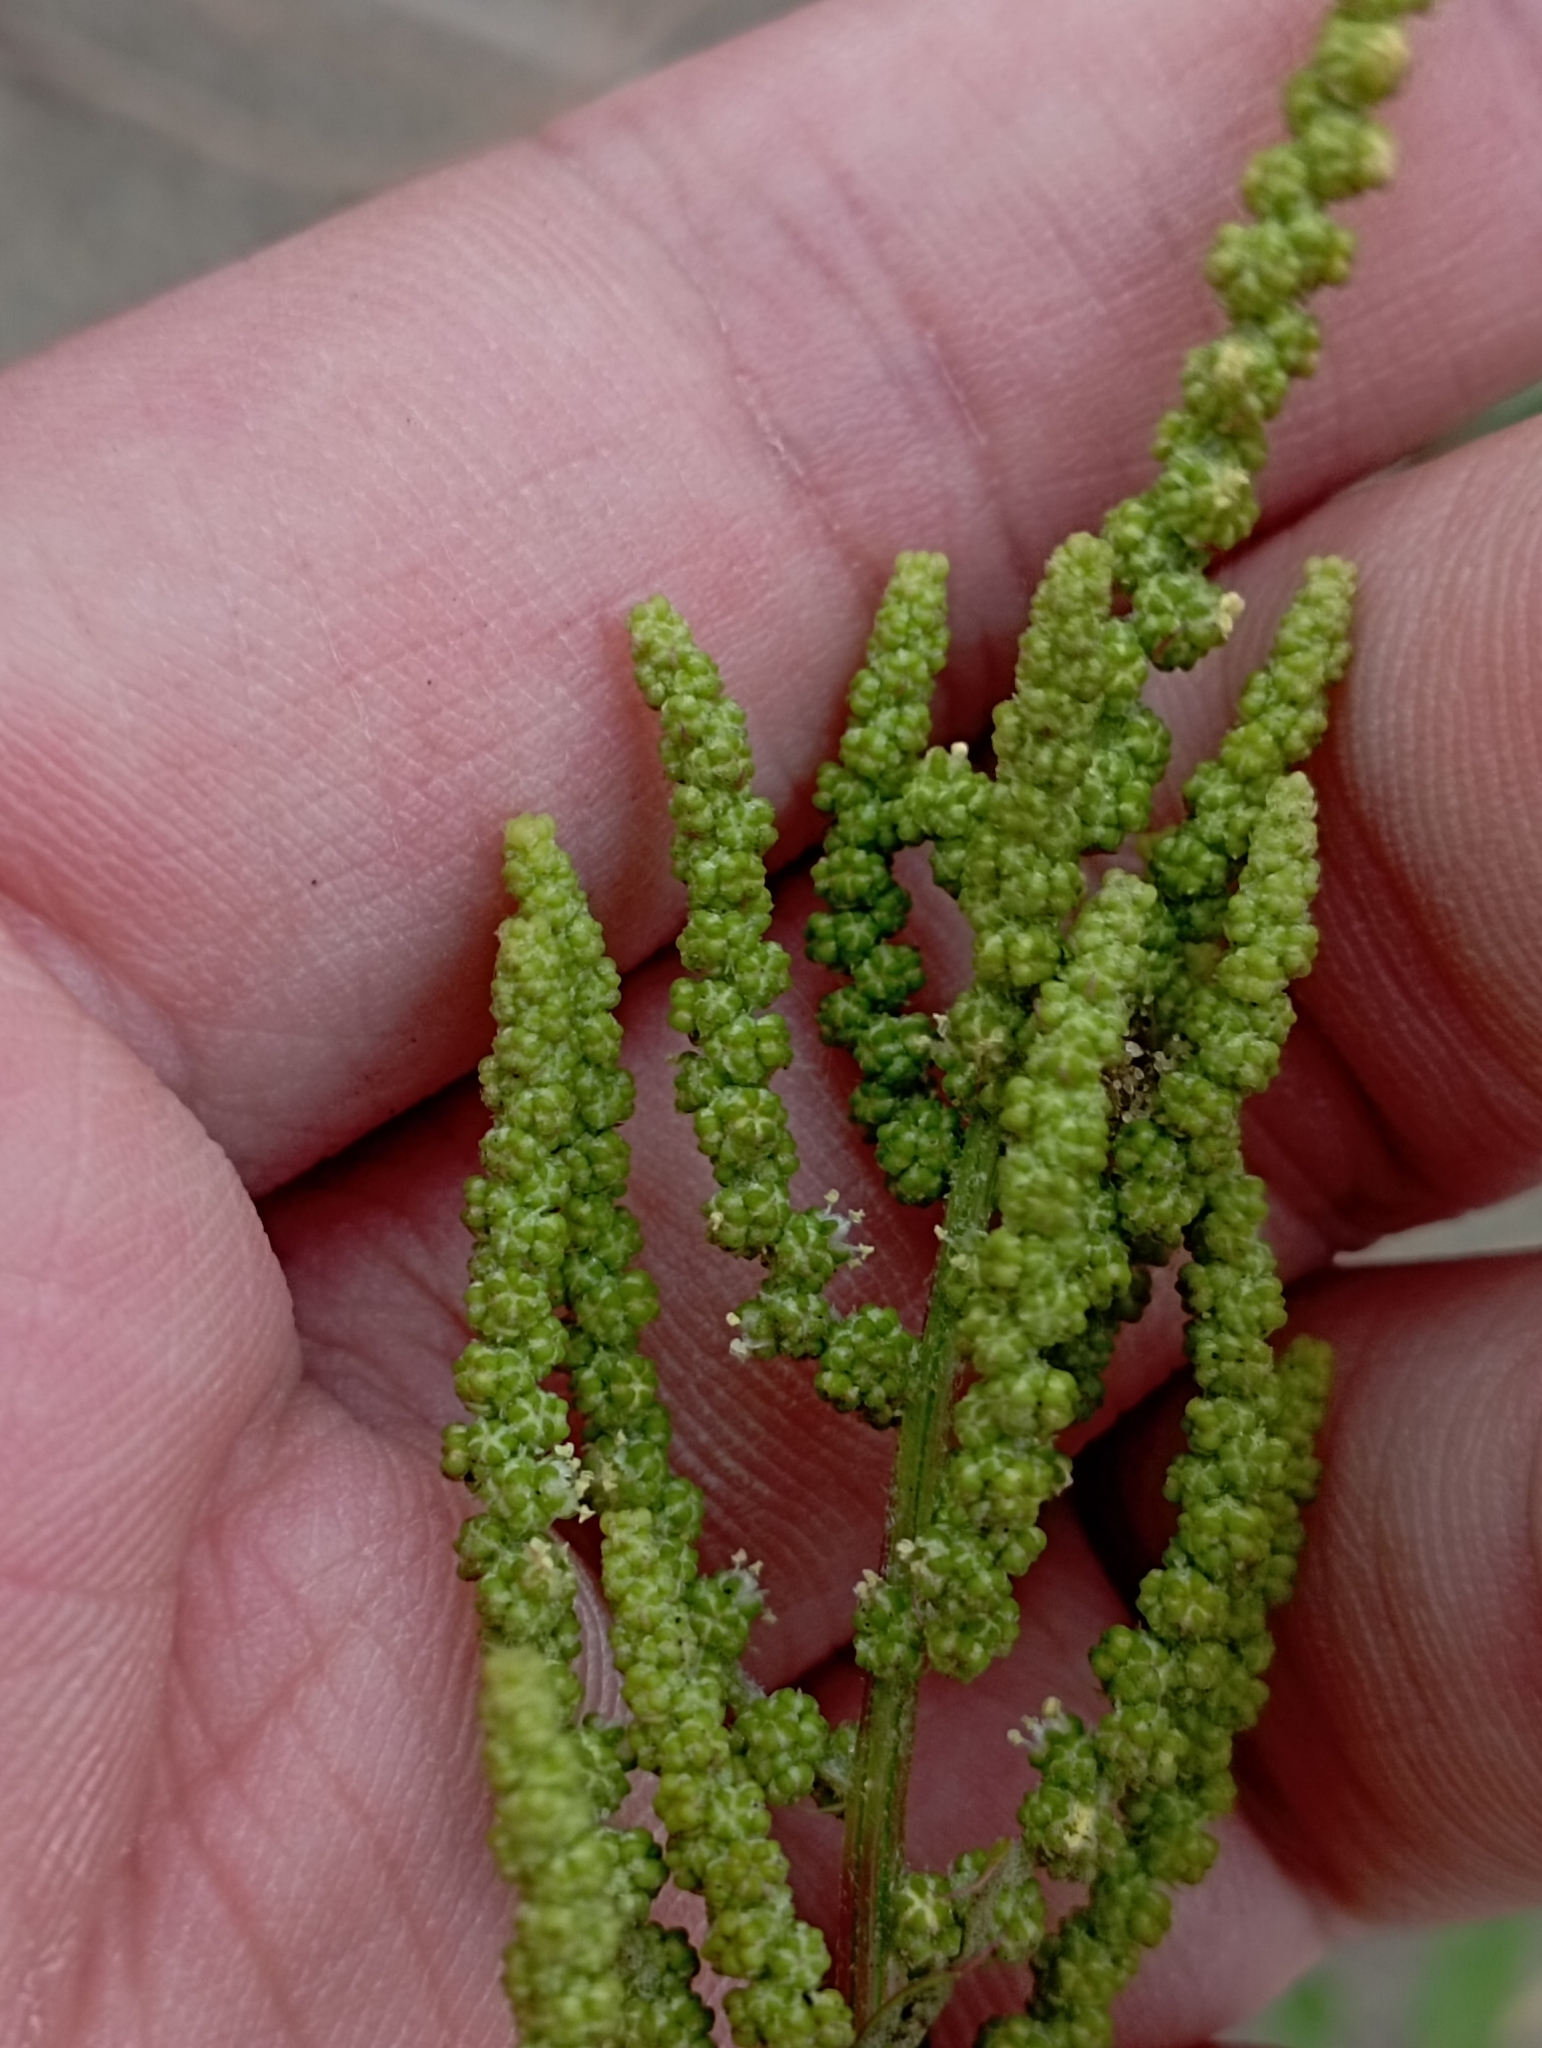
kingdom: Plantae
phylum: Tracheophyta
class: Magnoliopsida
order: Caryophyllales
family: Amaranthaceae
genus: Chenopodium
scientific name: Chenopodium acuminatum
